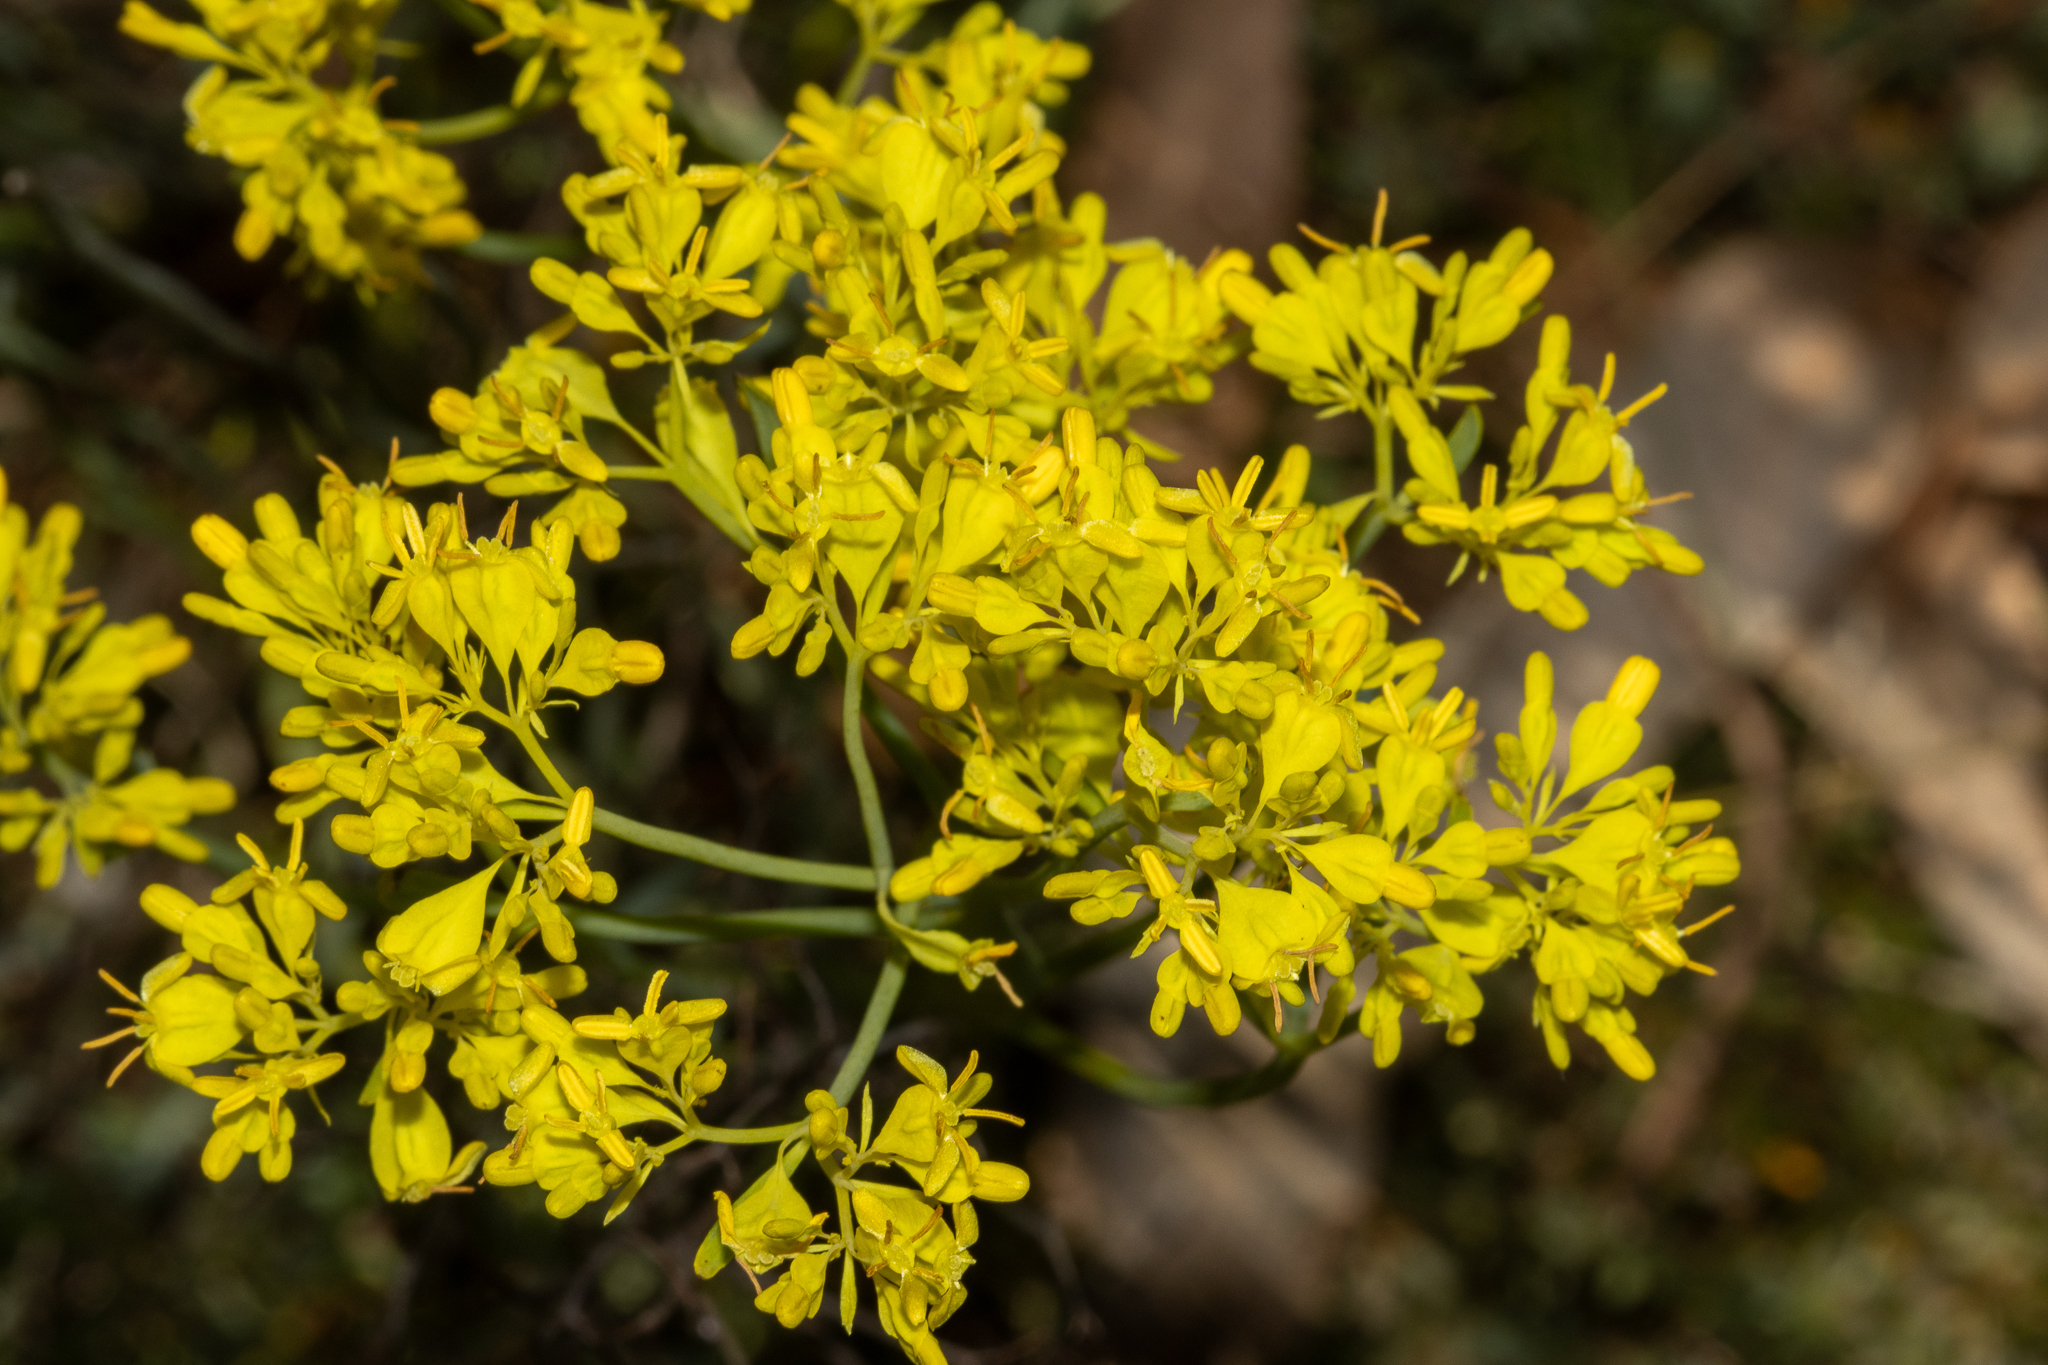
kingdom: Plantae
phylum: Tracheophyta
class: Magnoliopsida
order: Saxifragales
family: Haloragaceae
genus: Glischrocaryon
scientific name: Glischrocaryon behrii
